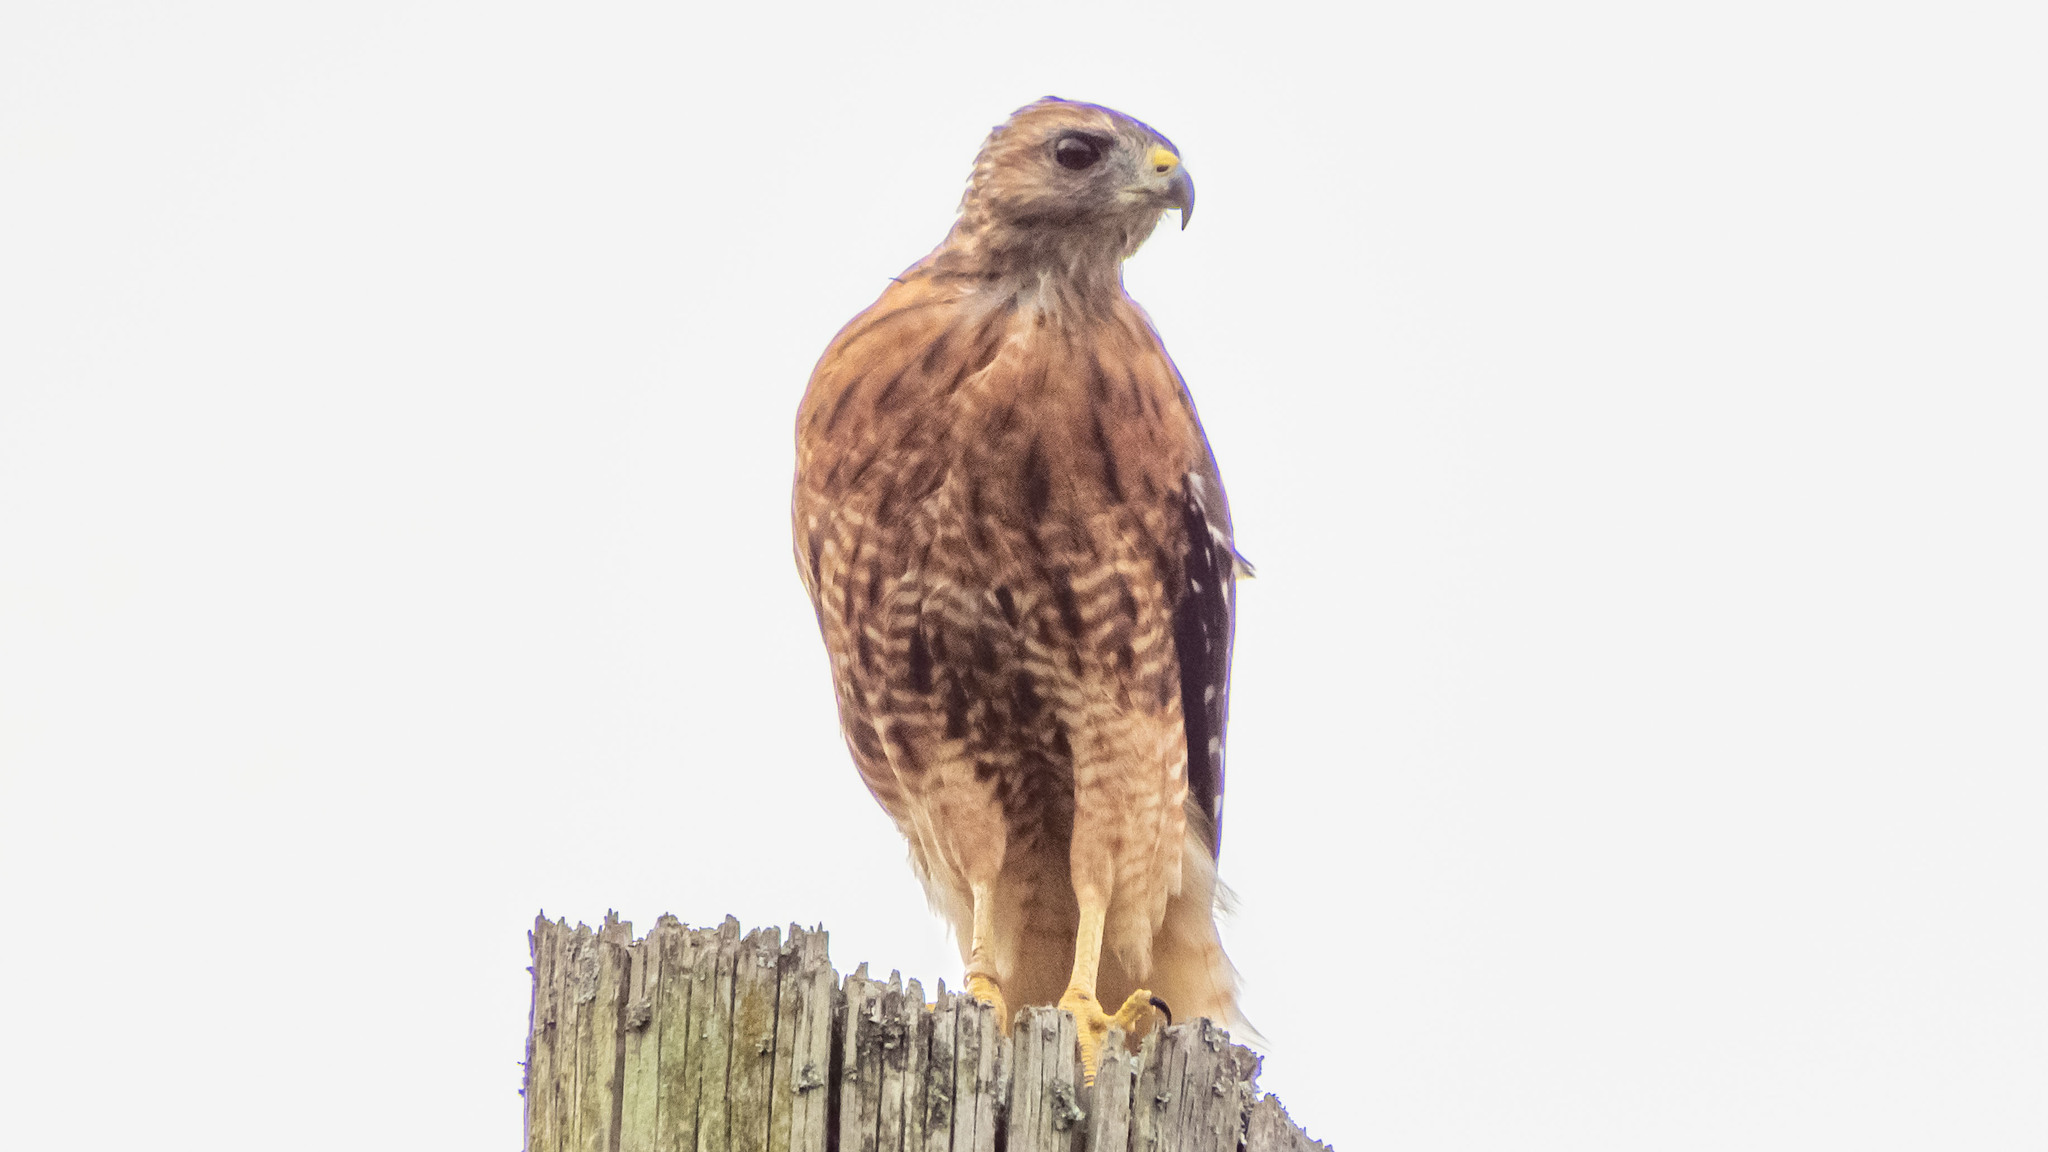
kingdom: Animalia
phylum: Chordata
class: Aves
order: Accipitriformes
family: Accipitridae
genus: Buteo
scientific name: Buteo lineatus
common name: Red-shouldered hawk
